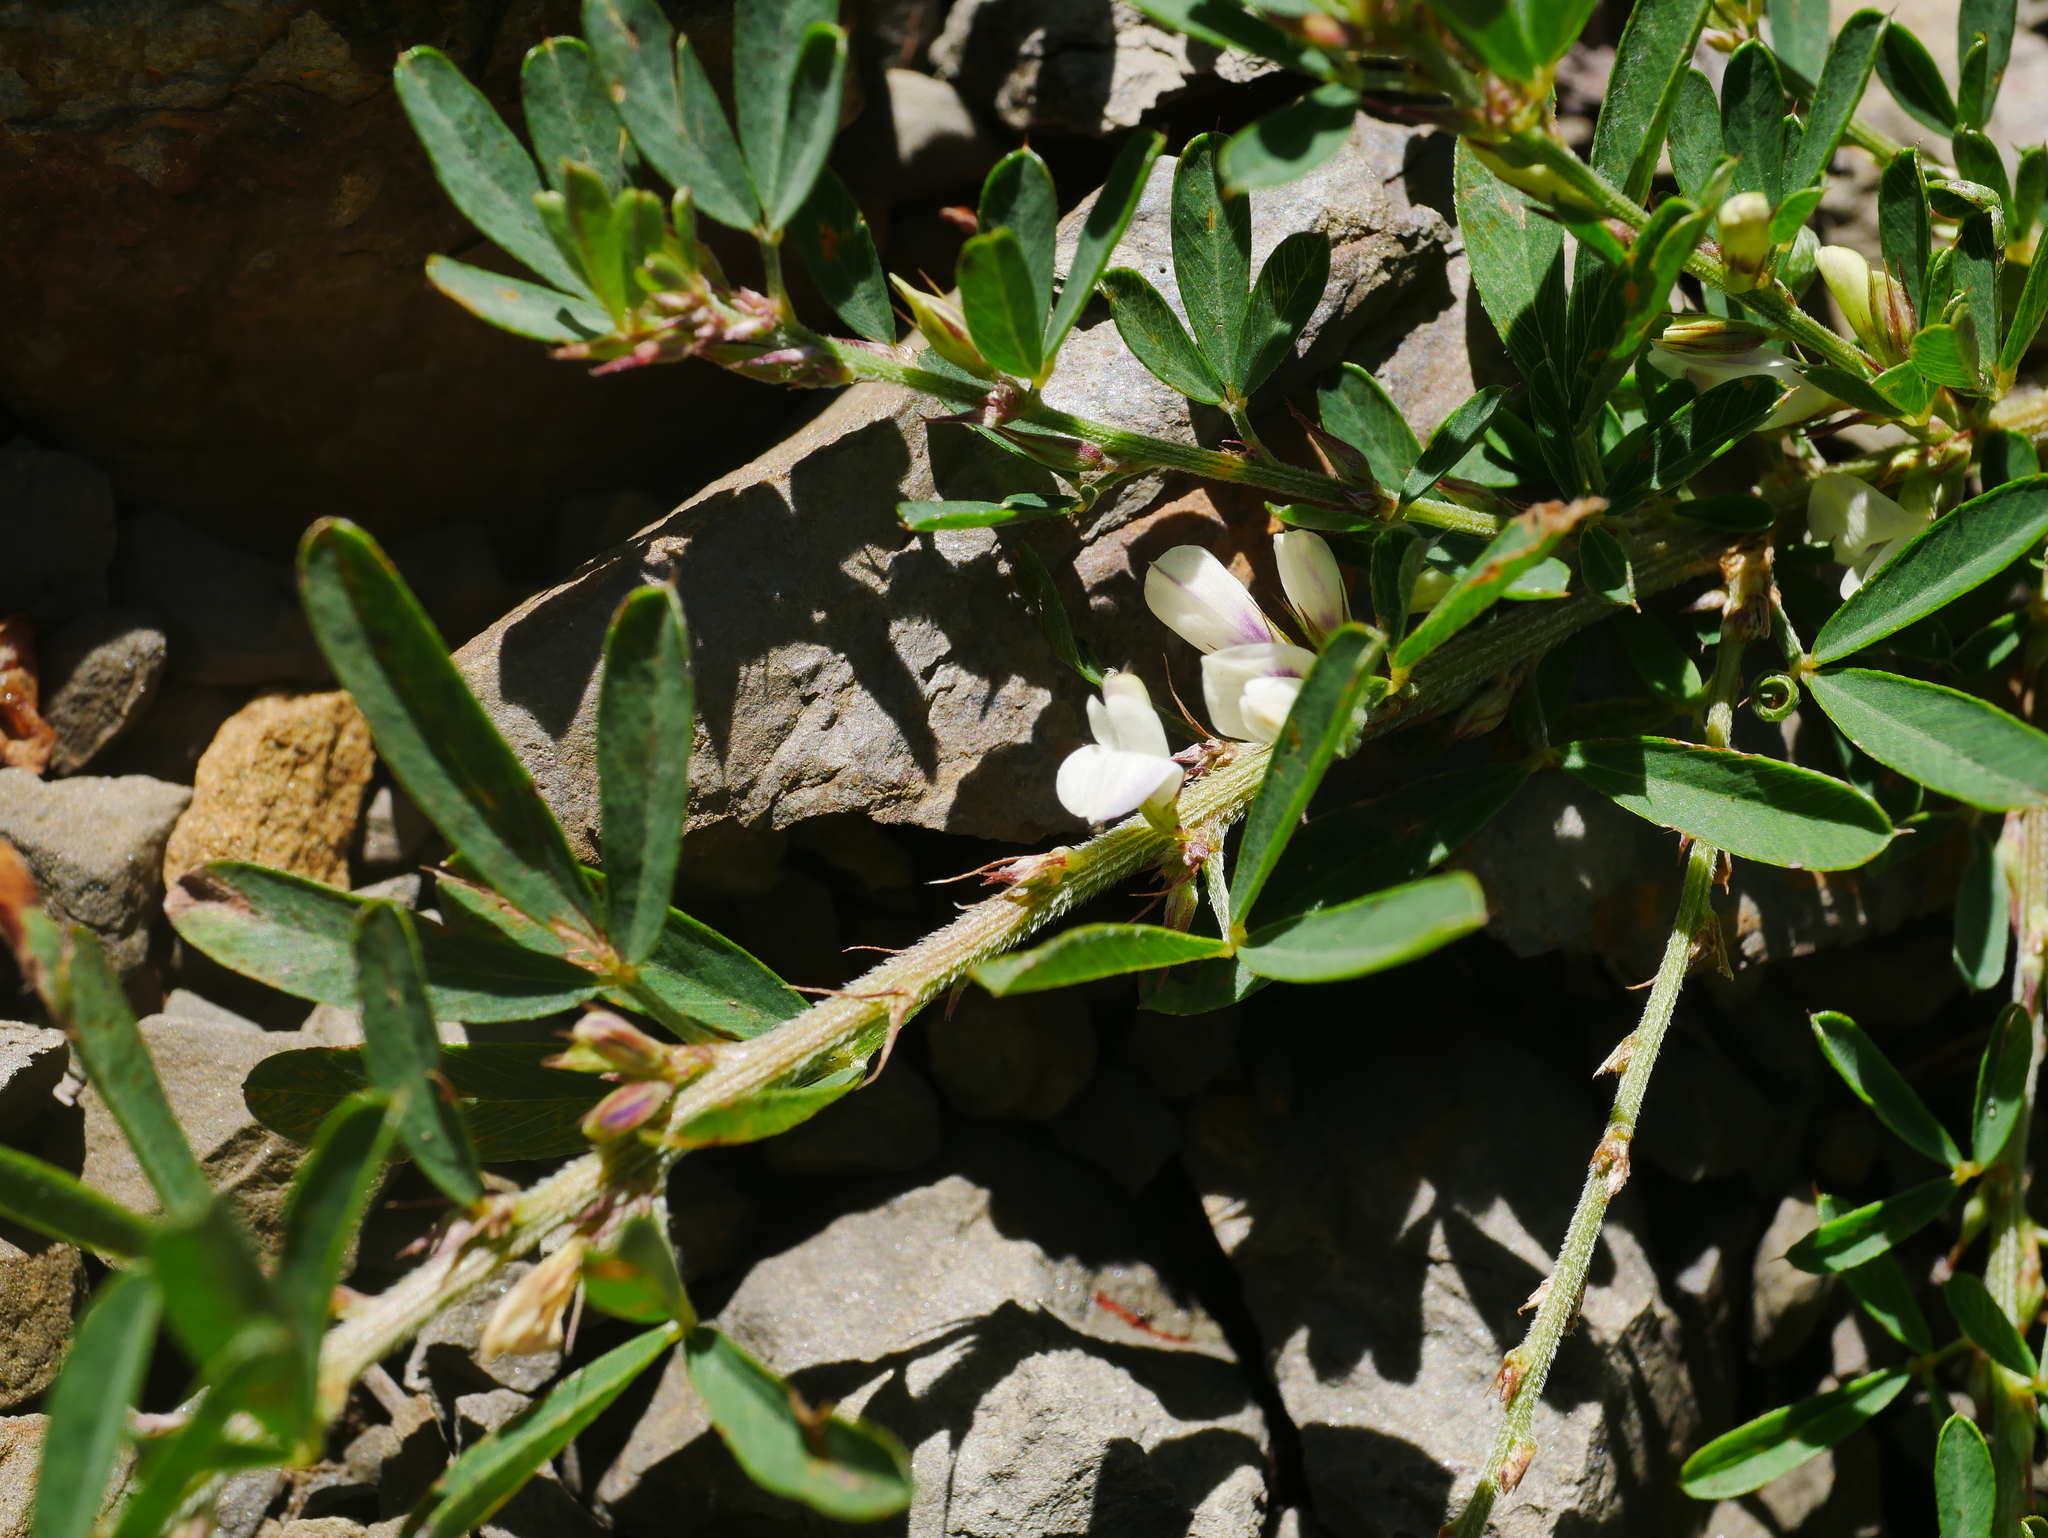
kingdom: Plantae
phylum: Tracheophyta
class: Magnoliopsida
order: Fabales
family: Fabaceae
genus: Lespedeza
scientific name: Lespedeza cuneata
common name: Chinese bush-clover
